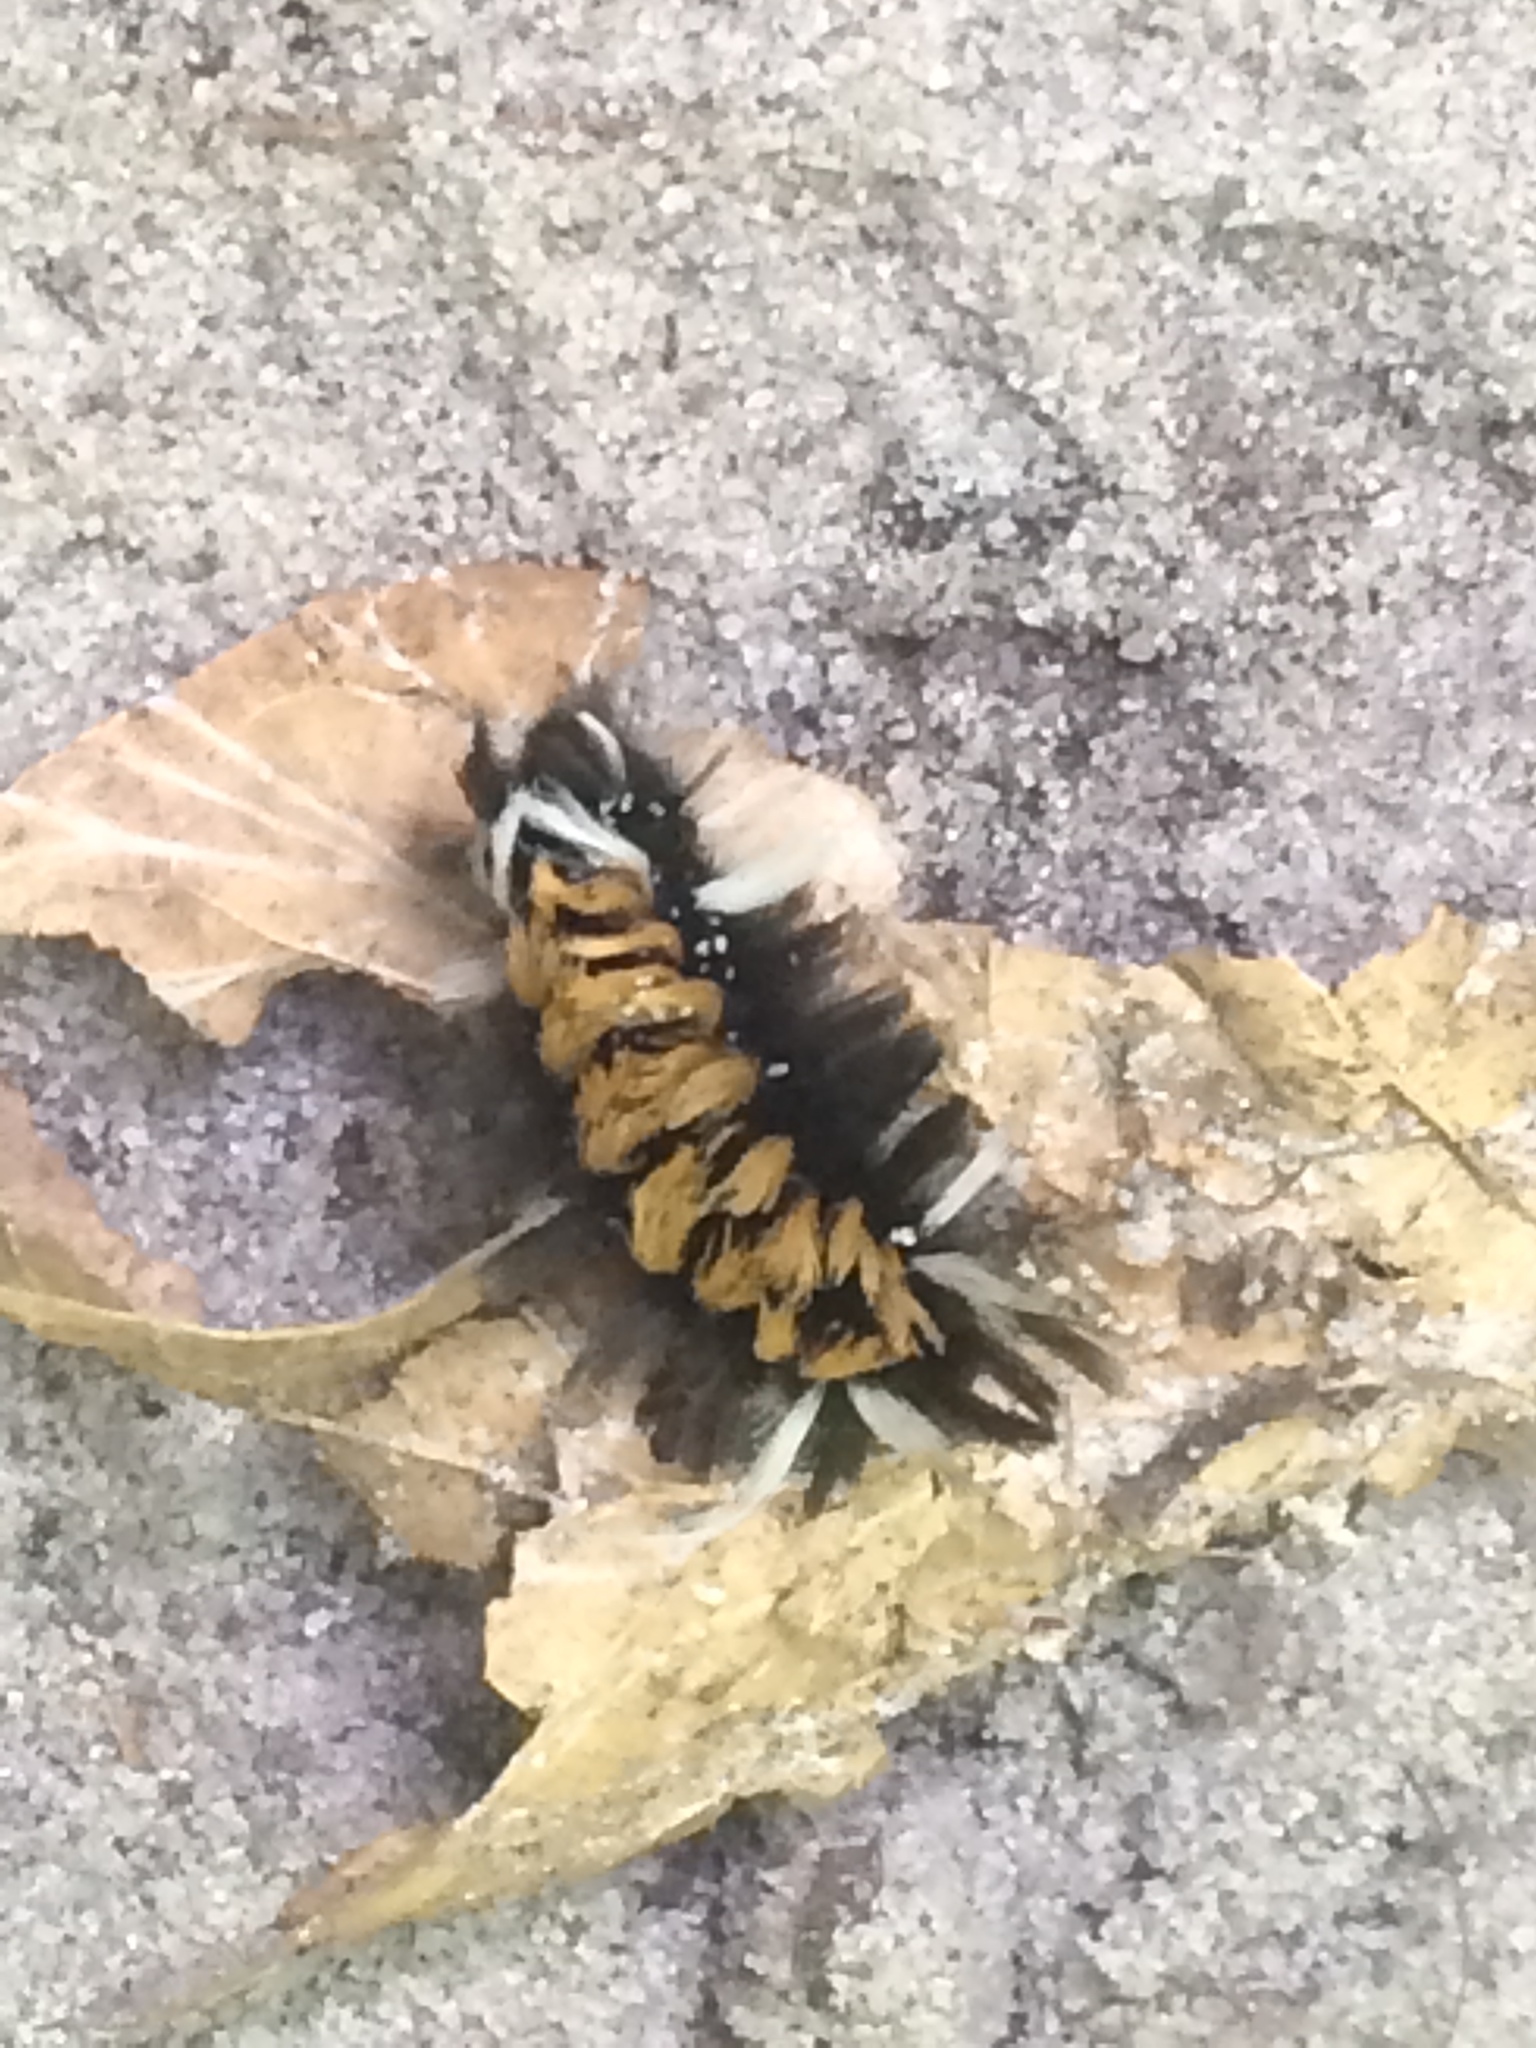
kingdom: Animalia
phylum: Arthropoda
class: Insecta
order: Lepidoptera
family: Erebidae
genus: Euchaetes
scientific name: Euchaetes egle
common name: Milkweed tussock moth
